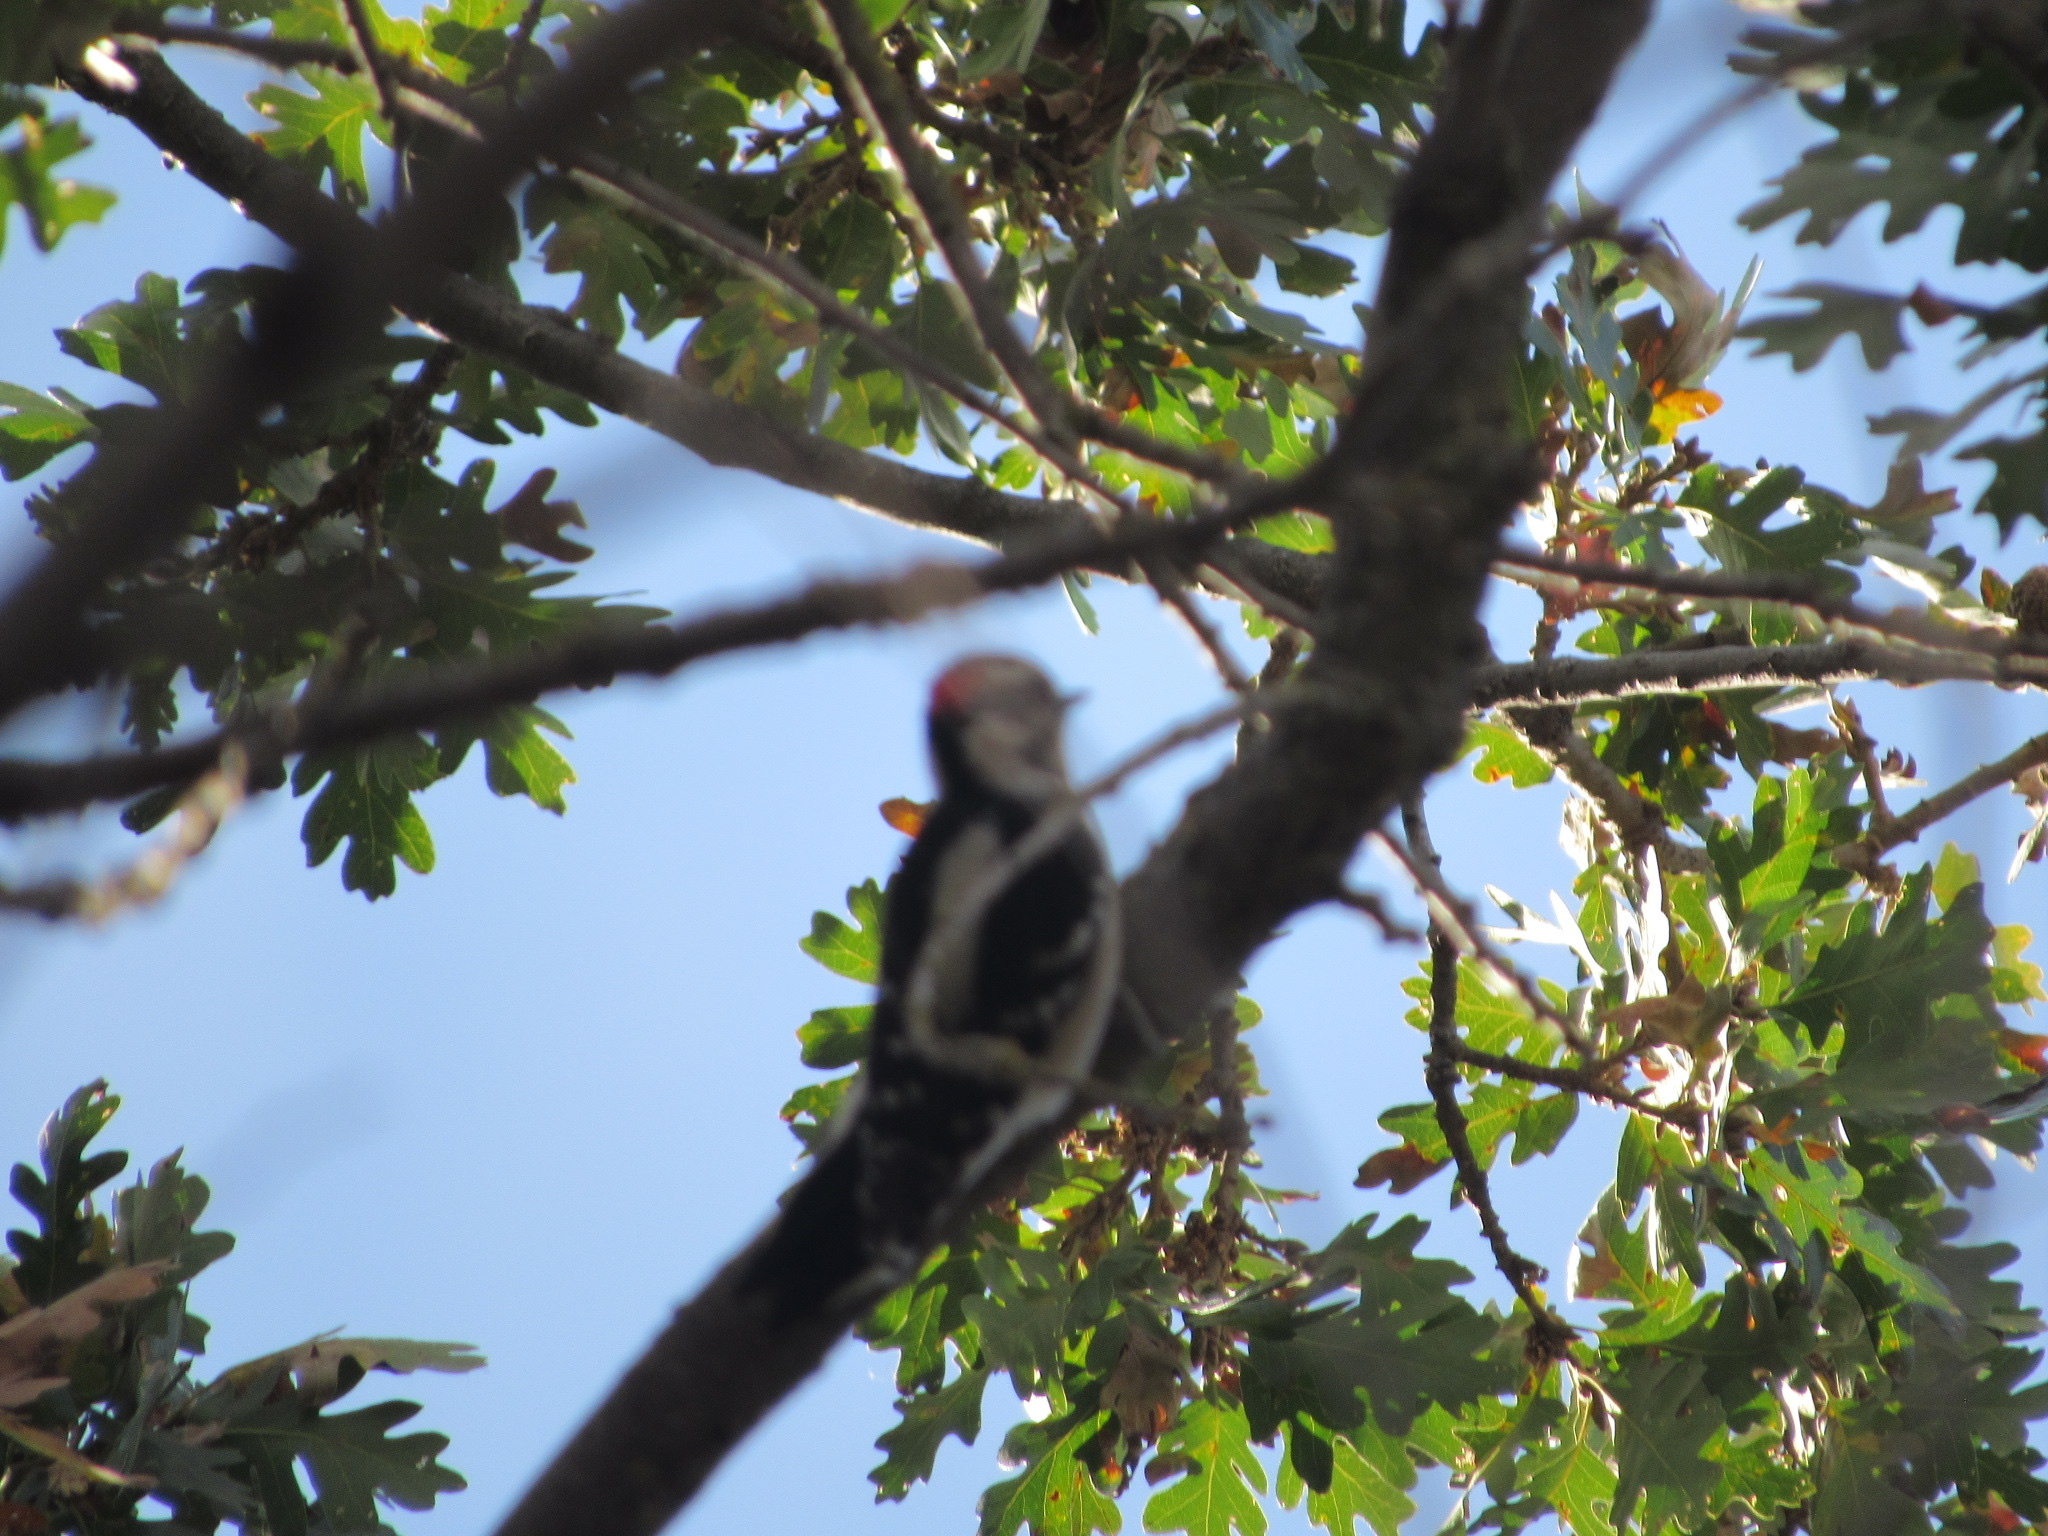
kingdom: Animalia
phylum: Chordata
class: Aves
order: Piciformes
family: Picidae
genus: Dryobates
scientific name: Dryobates pubescens
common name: Downy woodpecker
